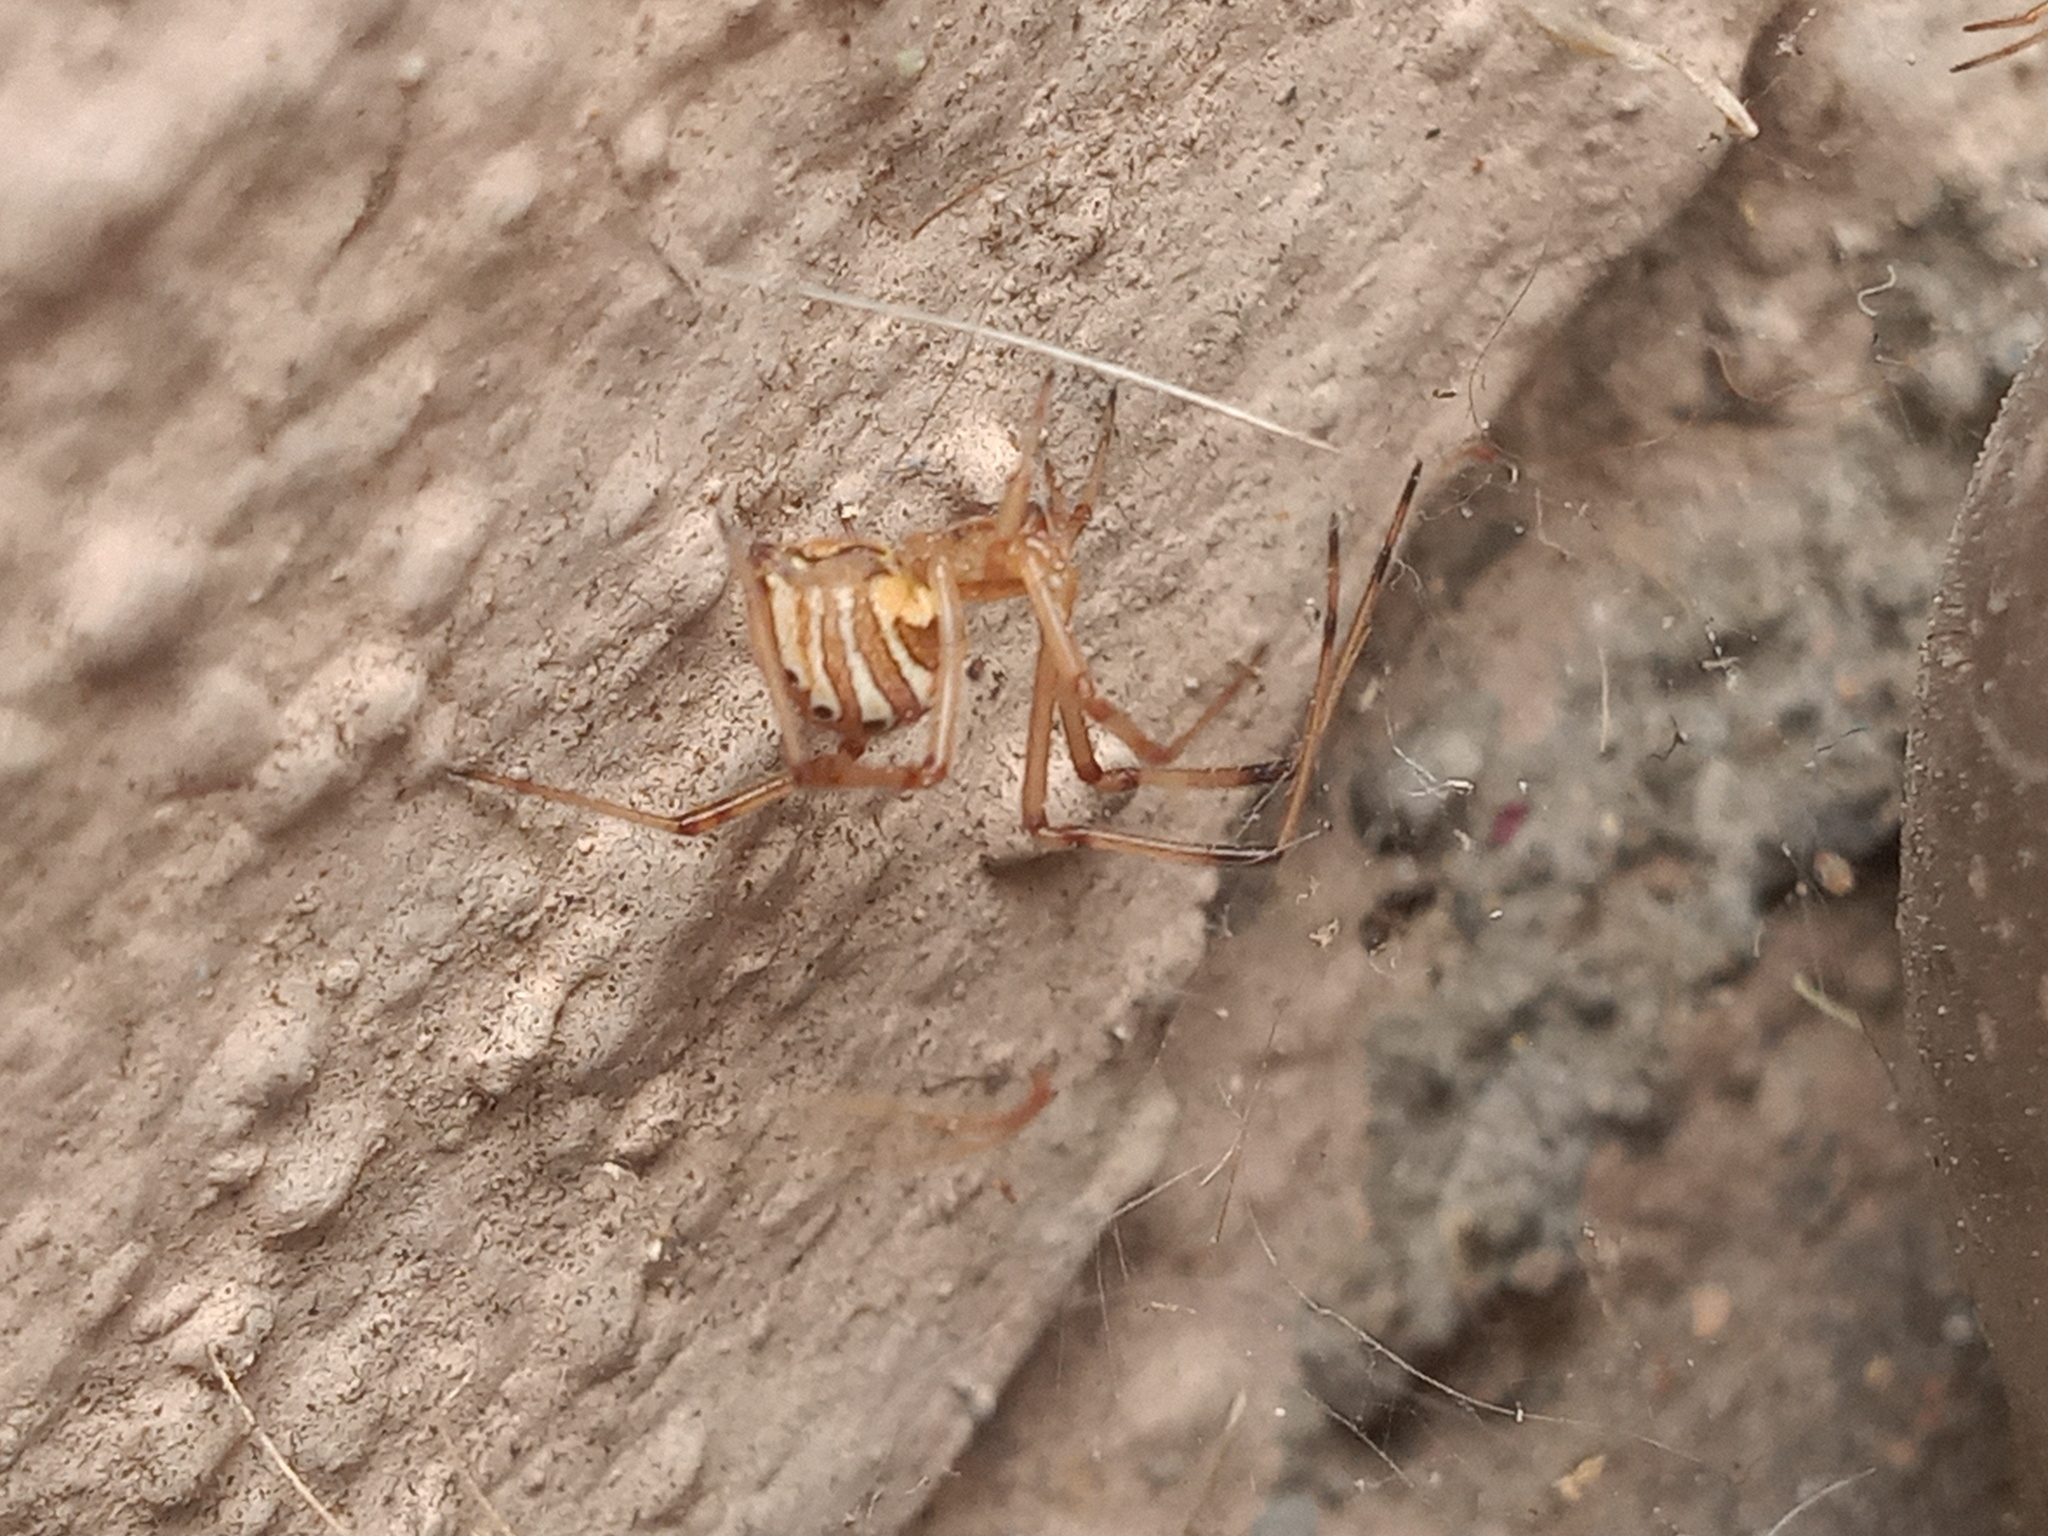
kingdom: Animalia
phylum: Arthropoda
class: Arachnida
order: Araneae
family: Theridiidae
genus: Latrodectus
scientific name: Latrodectus geometricus
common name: Brown widow spider
